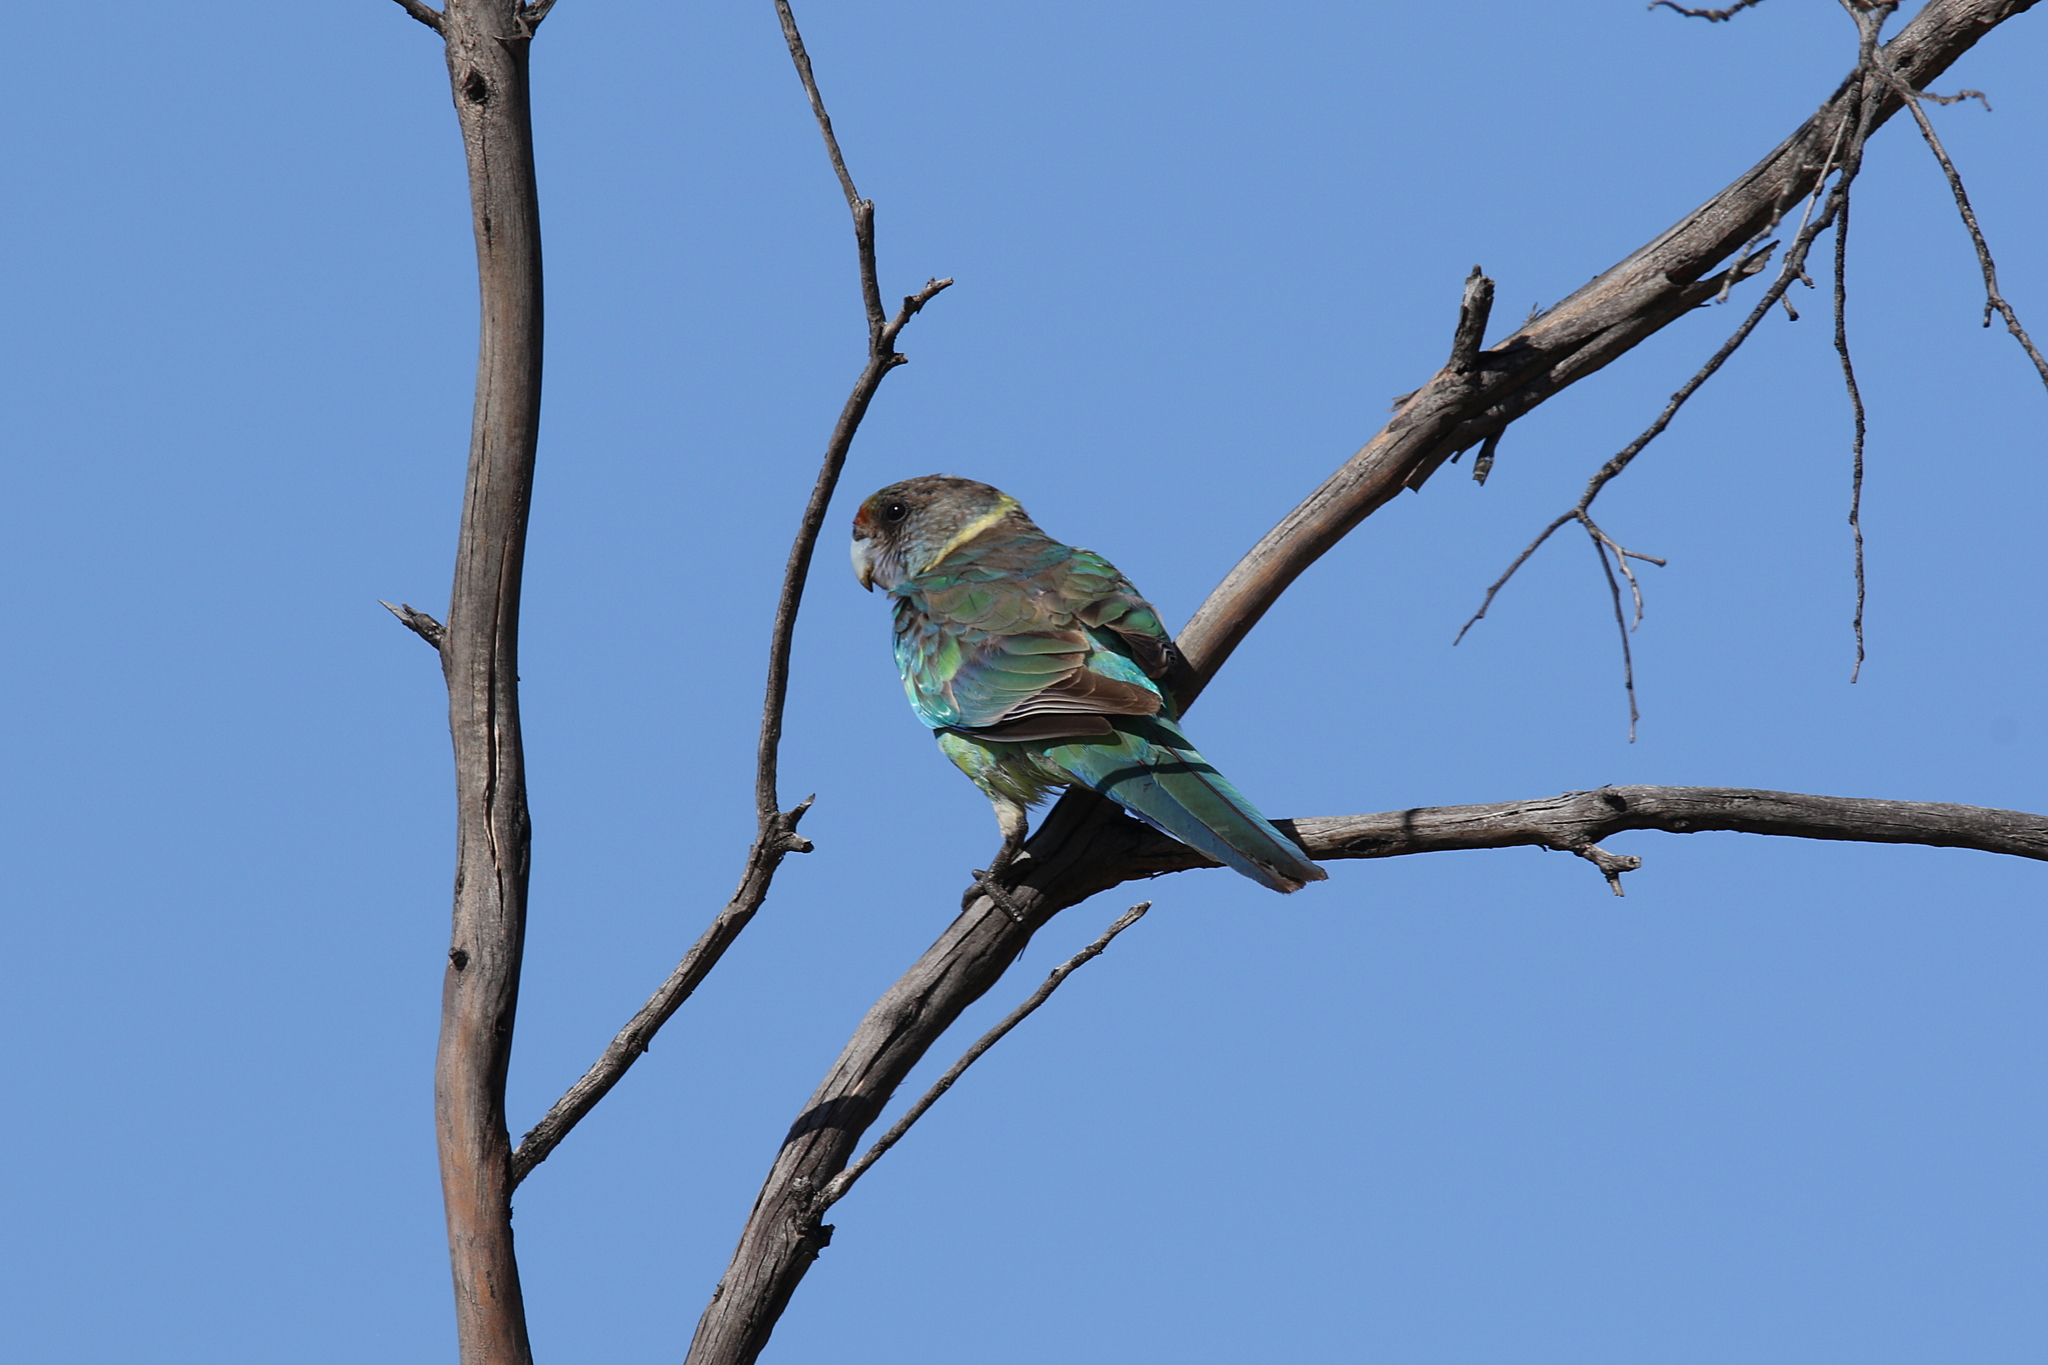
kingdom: Animalia
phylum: Chordata
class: Aves
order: Psittaciformes
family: Psittacidae
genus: Barnardius
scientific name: Barnardius zonarius
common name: Australian ringneck
